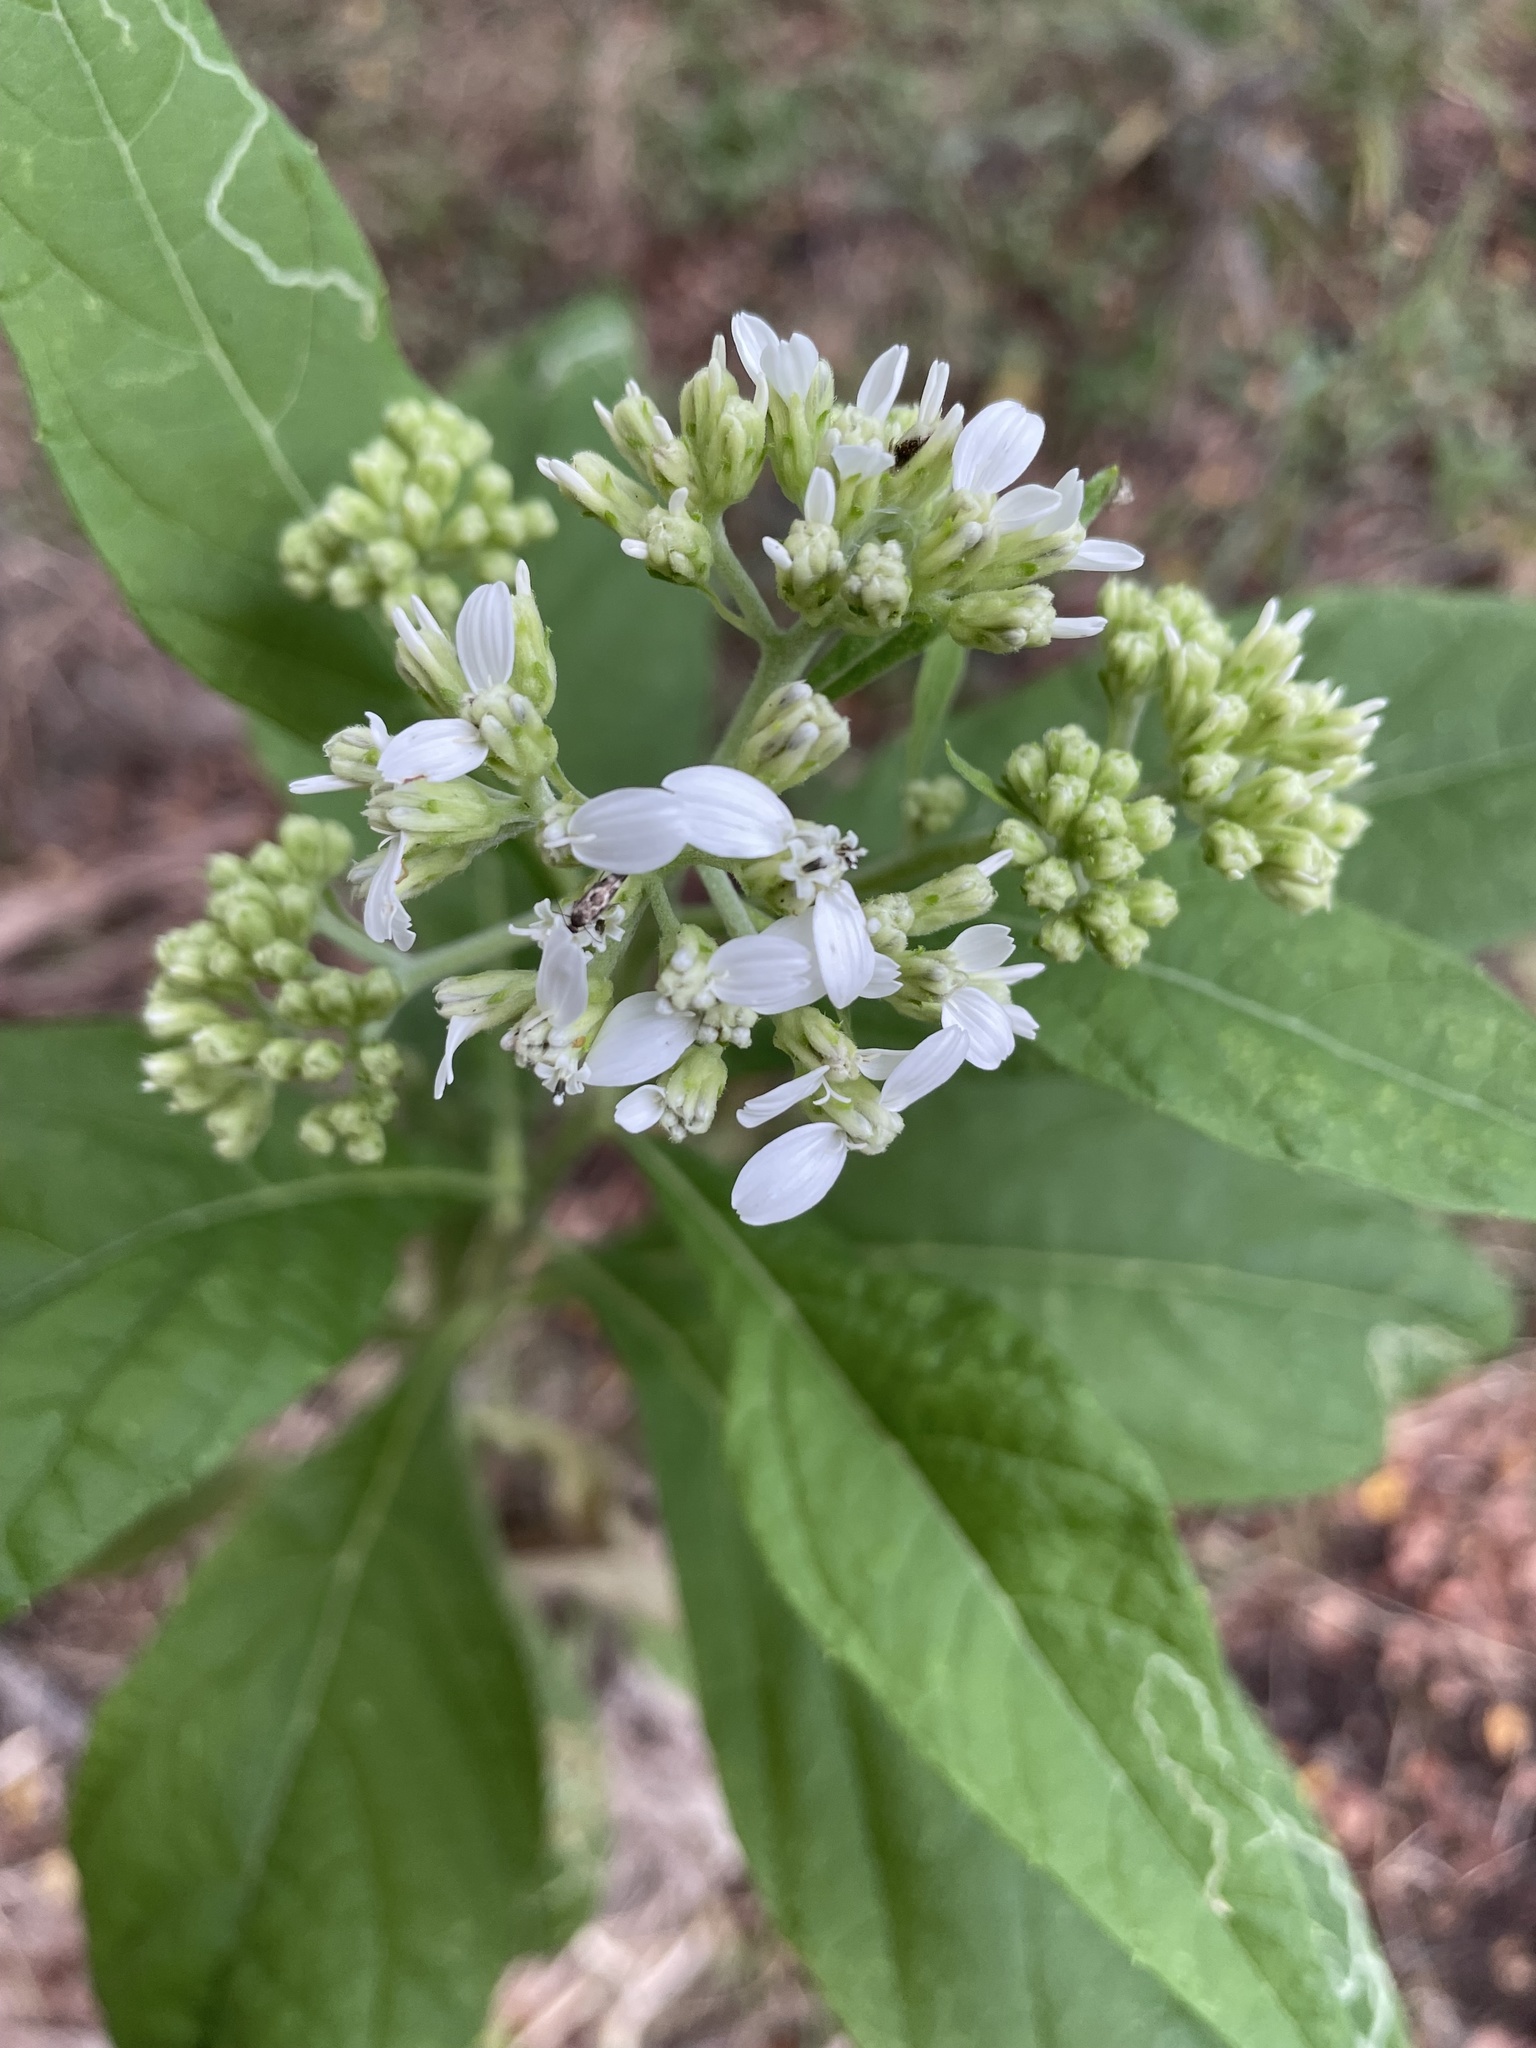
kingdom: Plantae
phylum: Tracheophyta
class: Magnoliopsida
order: Asterales
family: Asteraceae
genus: Verbesina
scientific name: Verbesina virginica
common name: Frostweed
